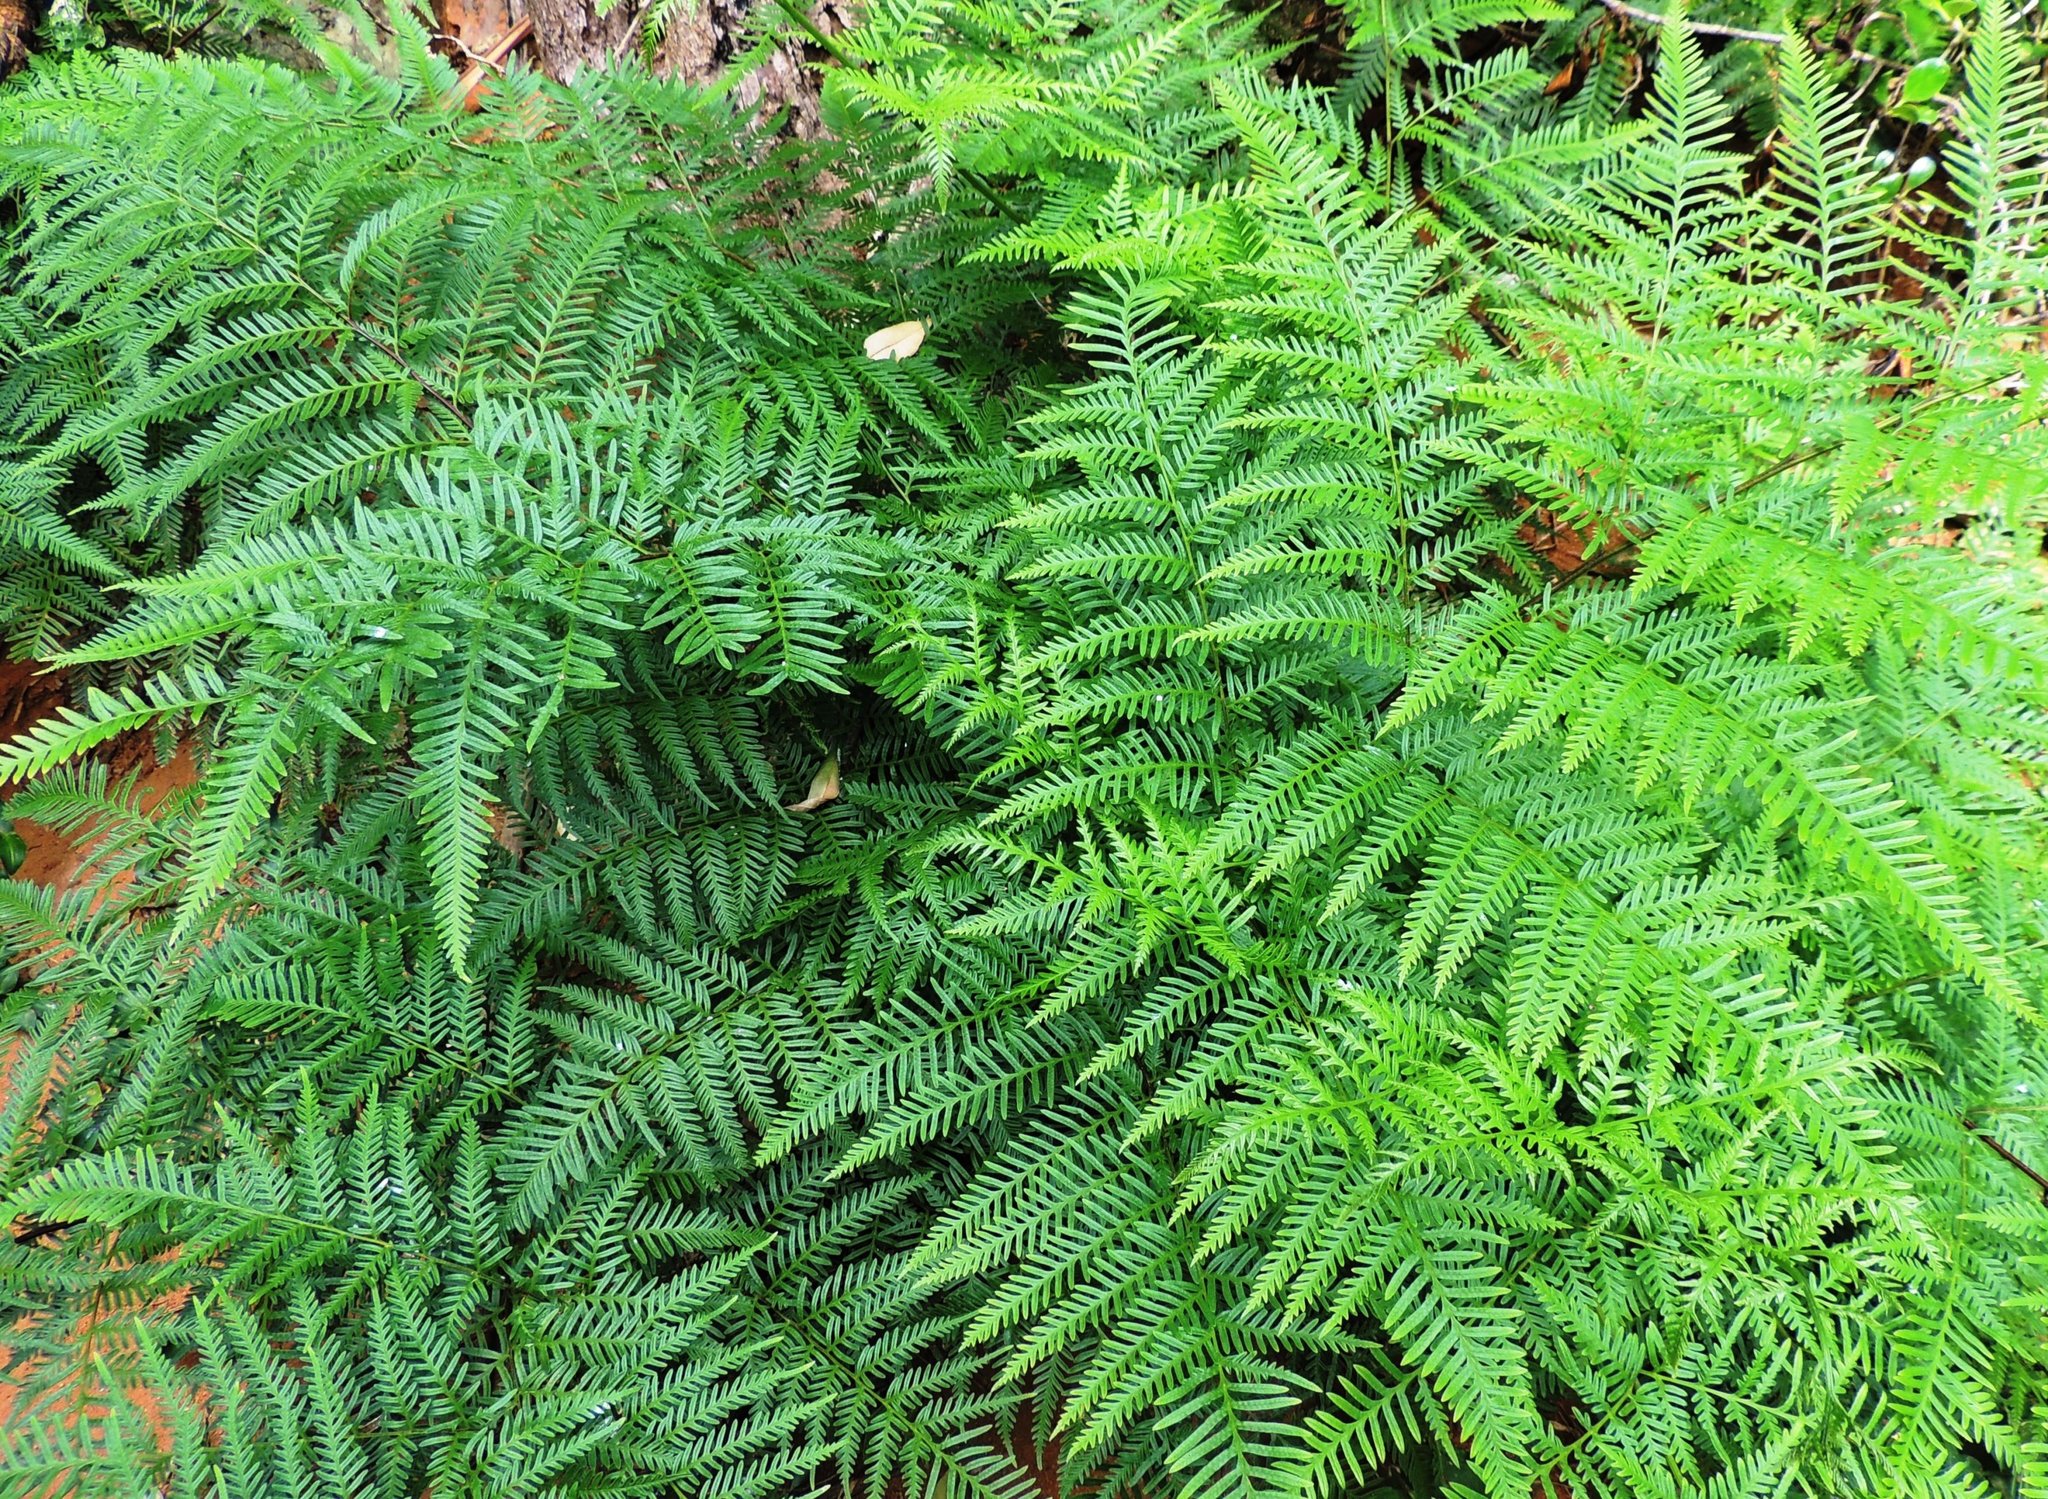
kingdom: Plantae
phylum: Tracheophyta
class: Polypodiopsida
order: Polypodiales
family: Pteridaceae
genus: Pteris
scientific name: Pteris tremula
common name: Australian brake
